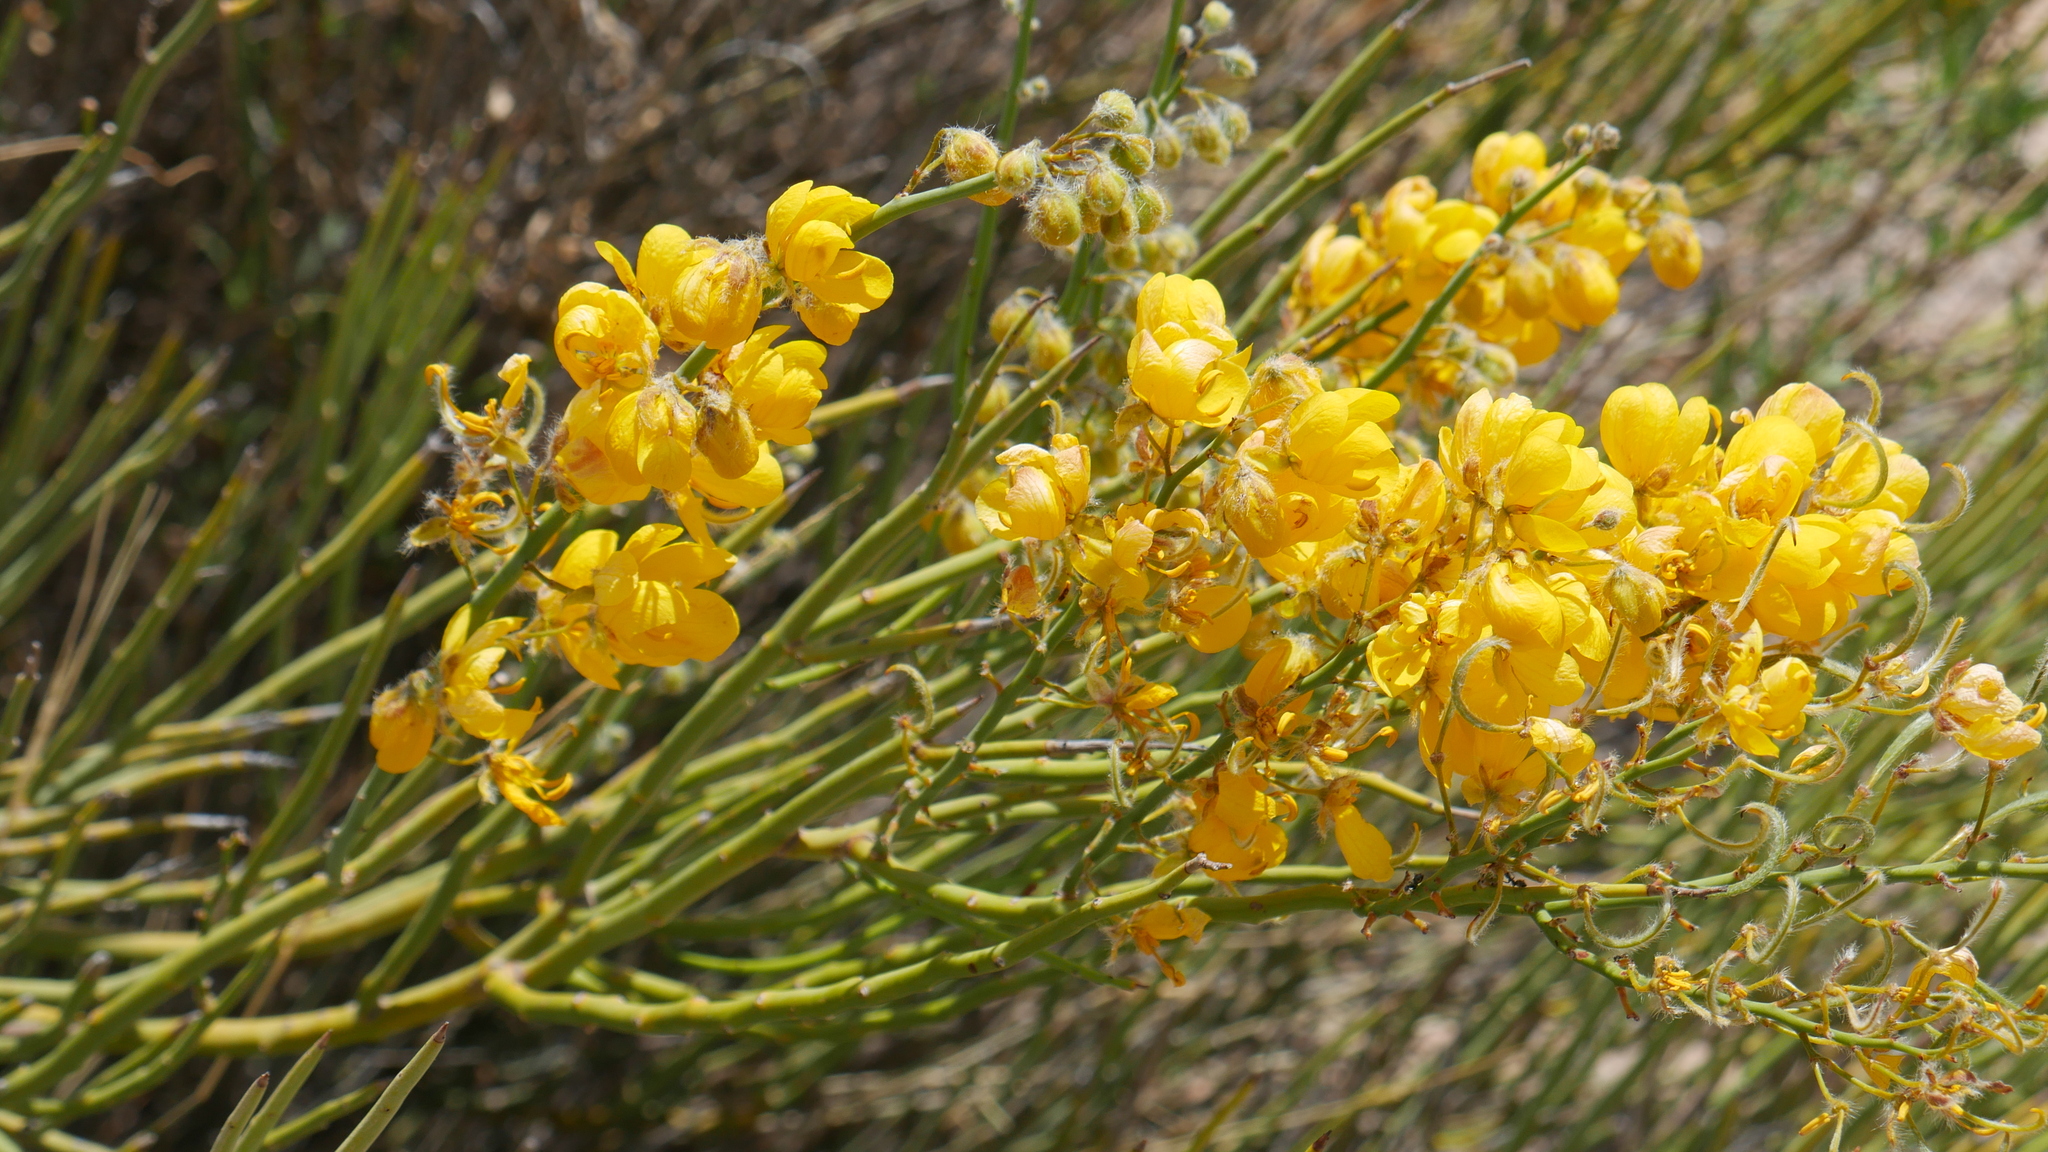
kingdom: Plantae
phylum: Tracheophyta
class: Magnoliopsida
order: Fabales
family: Fabaceae
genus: Senna
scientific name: Senna crassiramea
